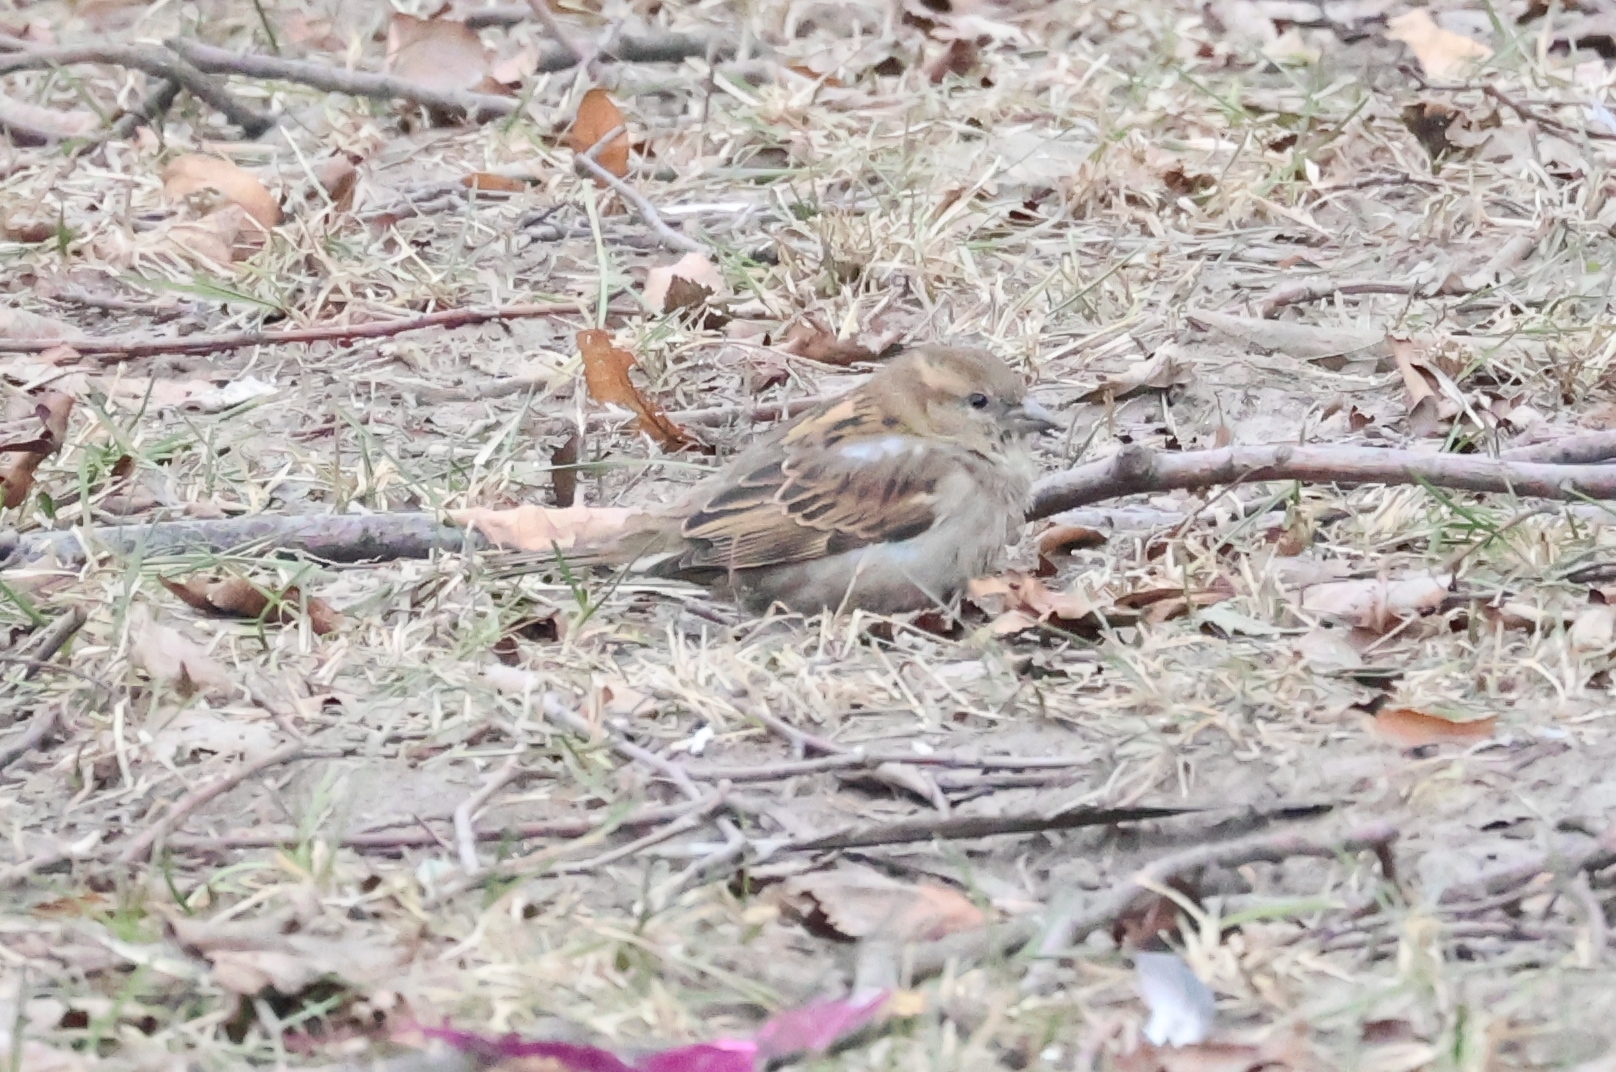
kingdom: Animalia
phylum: Chordata
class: Aves
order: Passeriformes
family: Passeridae
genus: Passer
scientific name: Passer domesticus
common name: House sparrow
